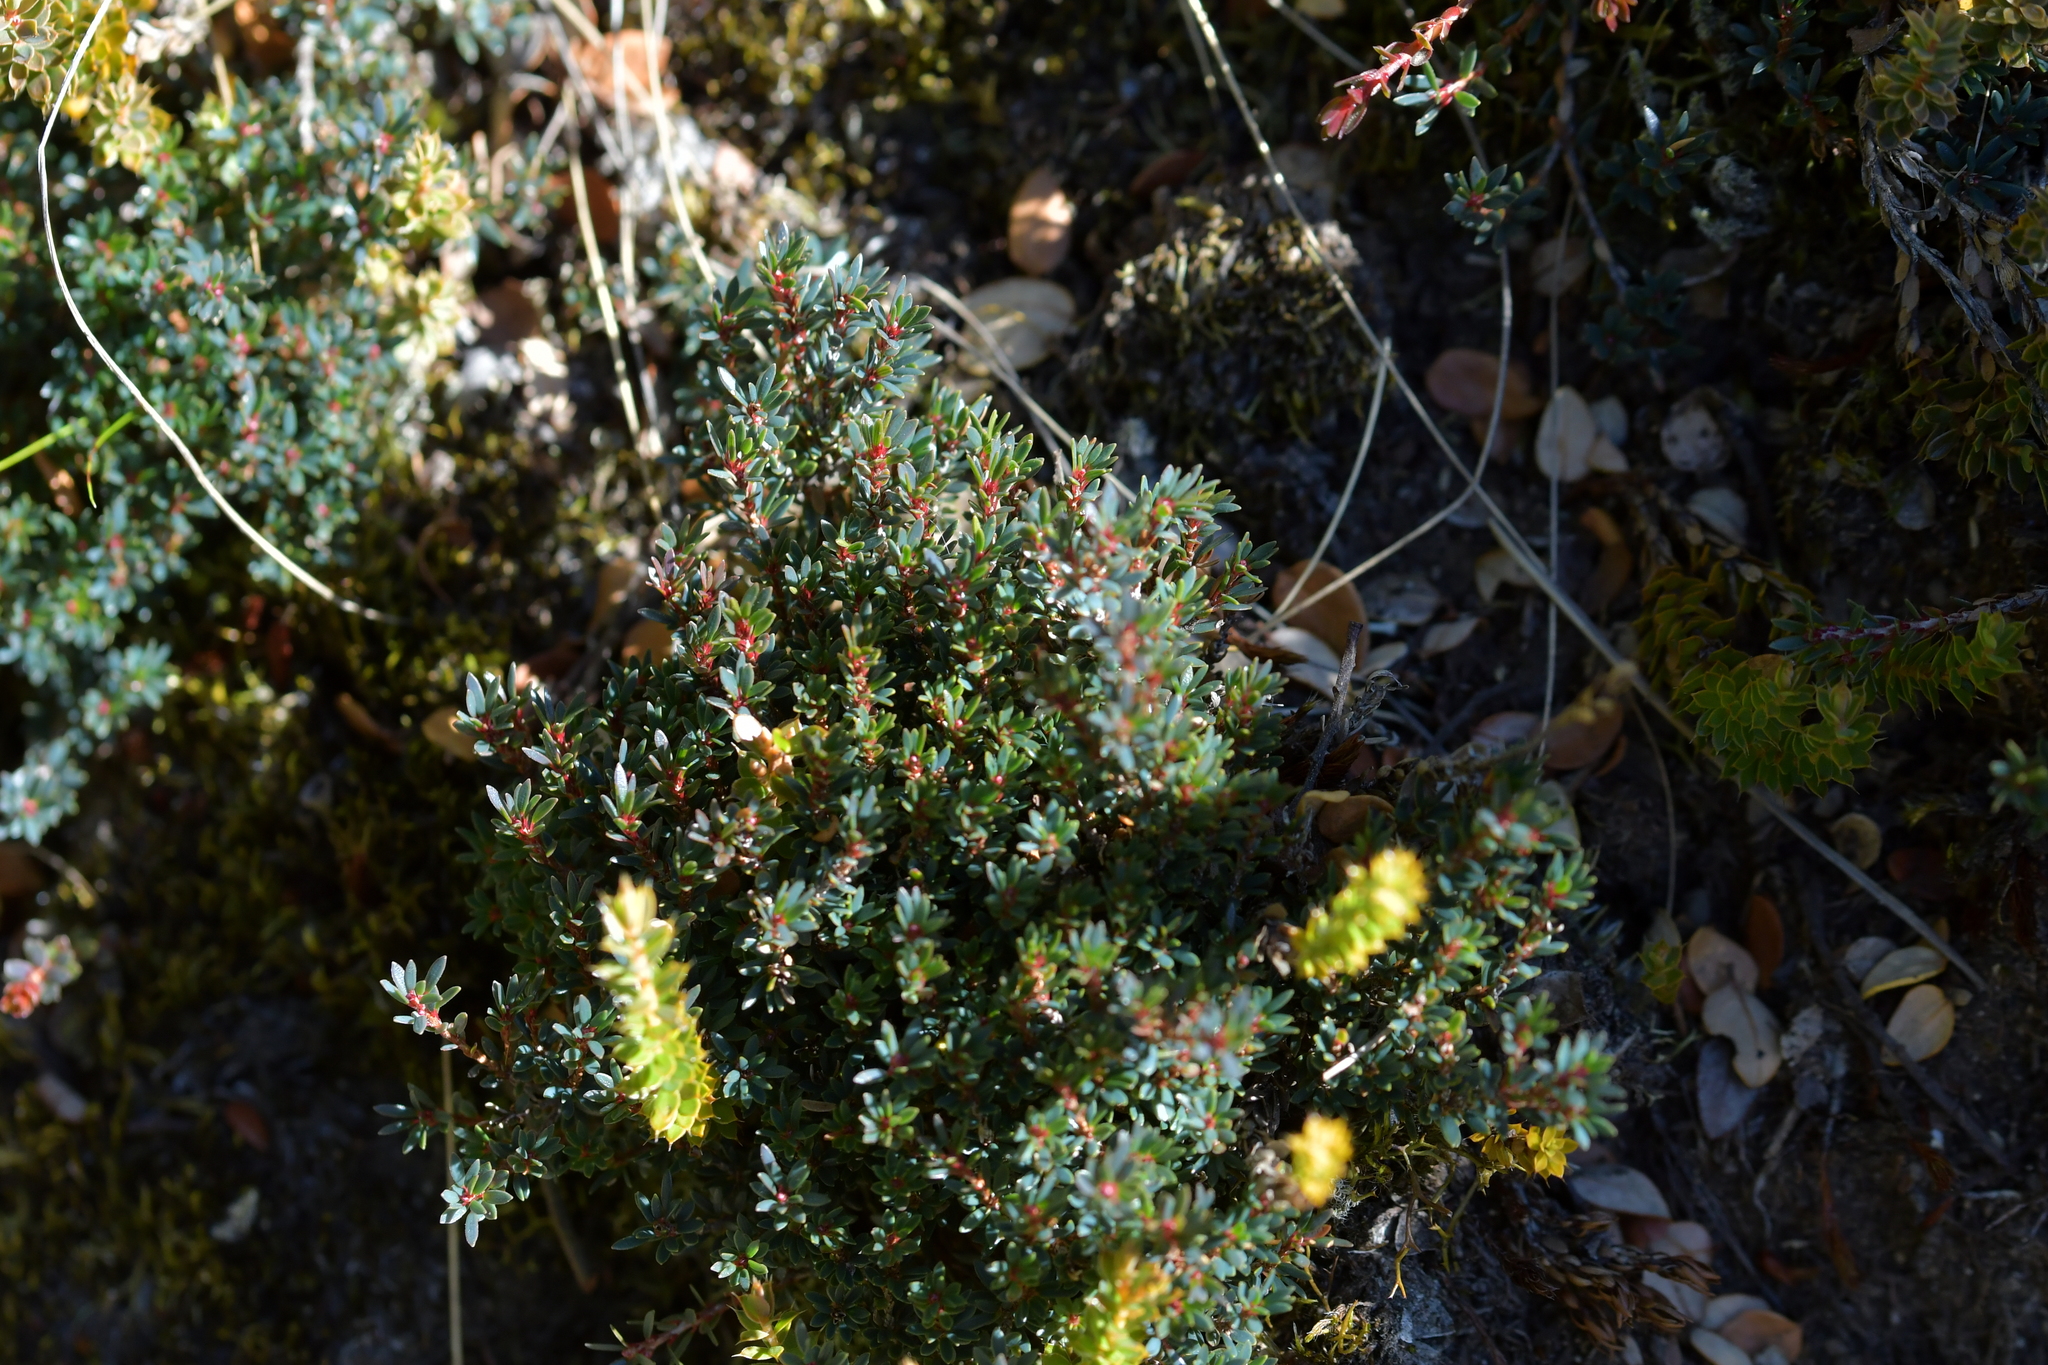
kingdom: Plantae
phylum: Tracheophyta
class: Magnoliopsida
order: Ericales
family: Ericaceae
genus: Pentachondra
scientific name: Pentachondra pumila
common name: Carpet-heath
